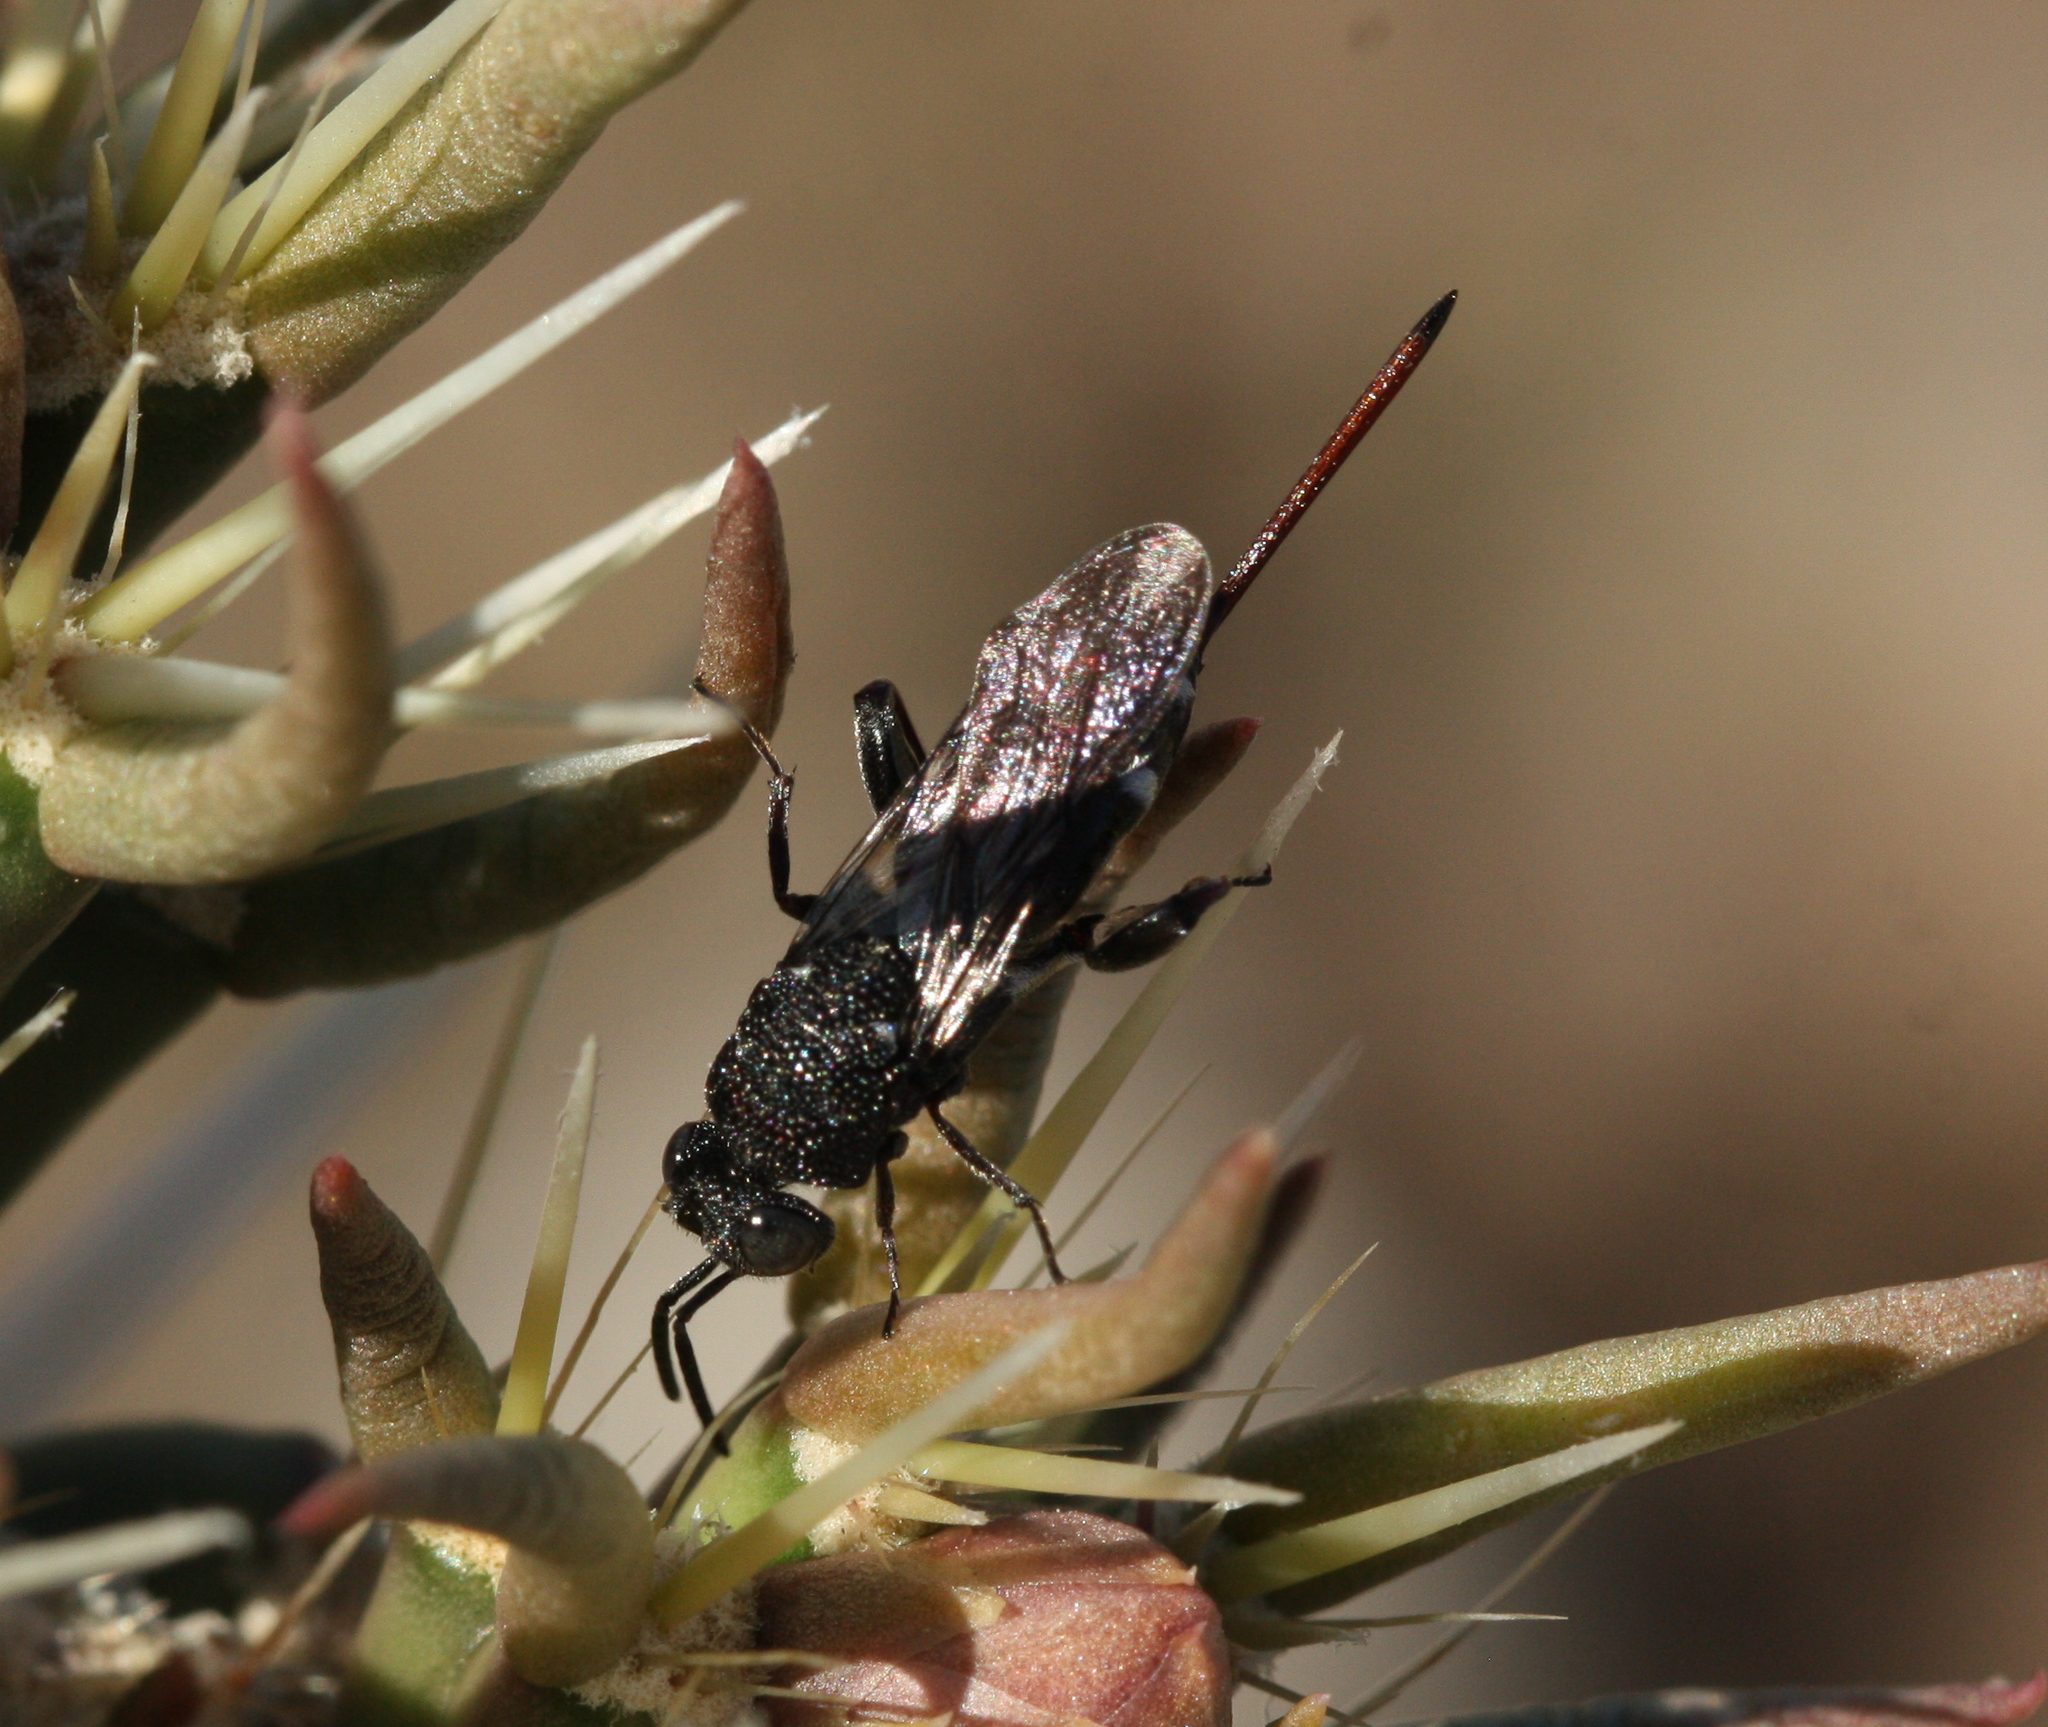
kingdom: Animalia
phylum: Arthropoda
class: Insecta
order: Hymenoptera
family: Chalcididae
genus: Acanthochalcis
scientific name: Acanthochalcis nigricans
